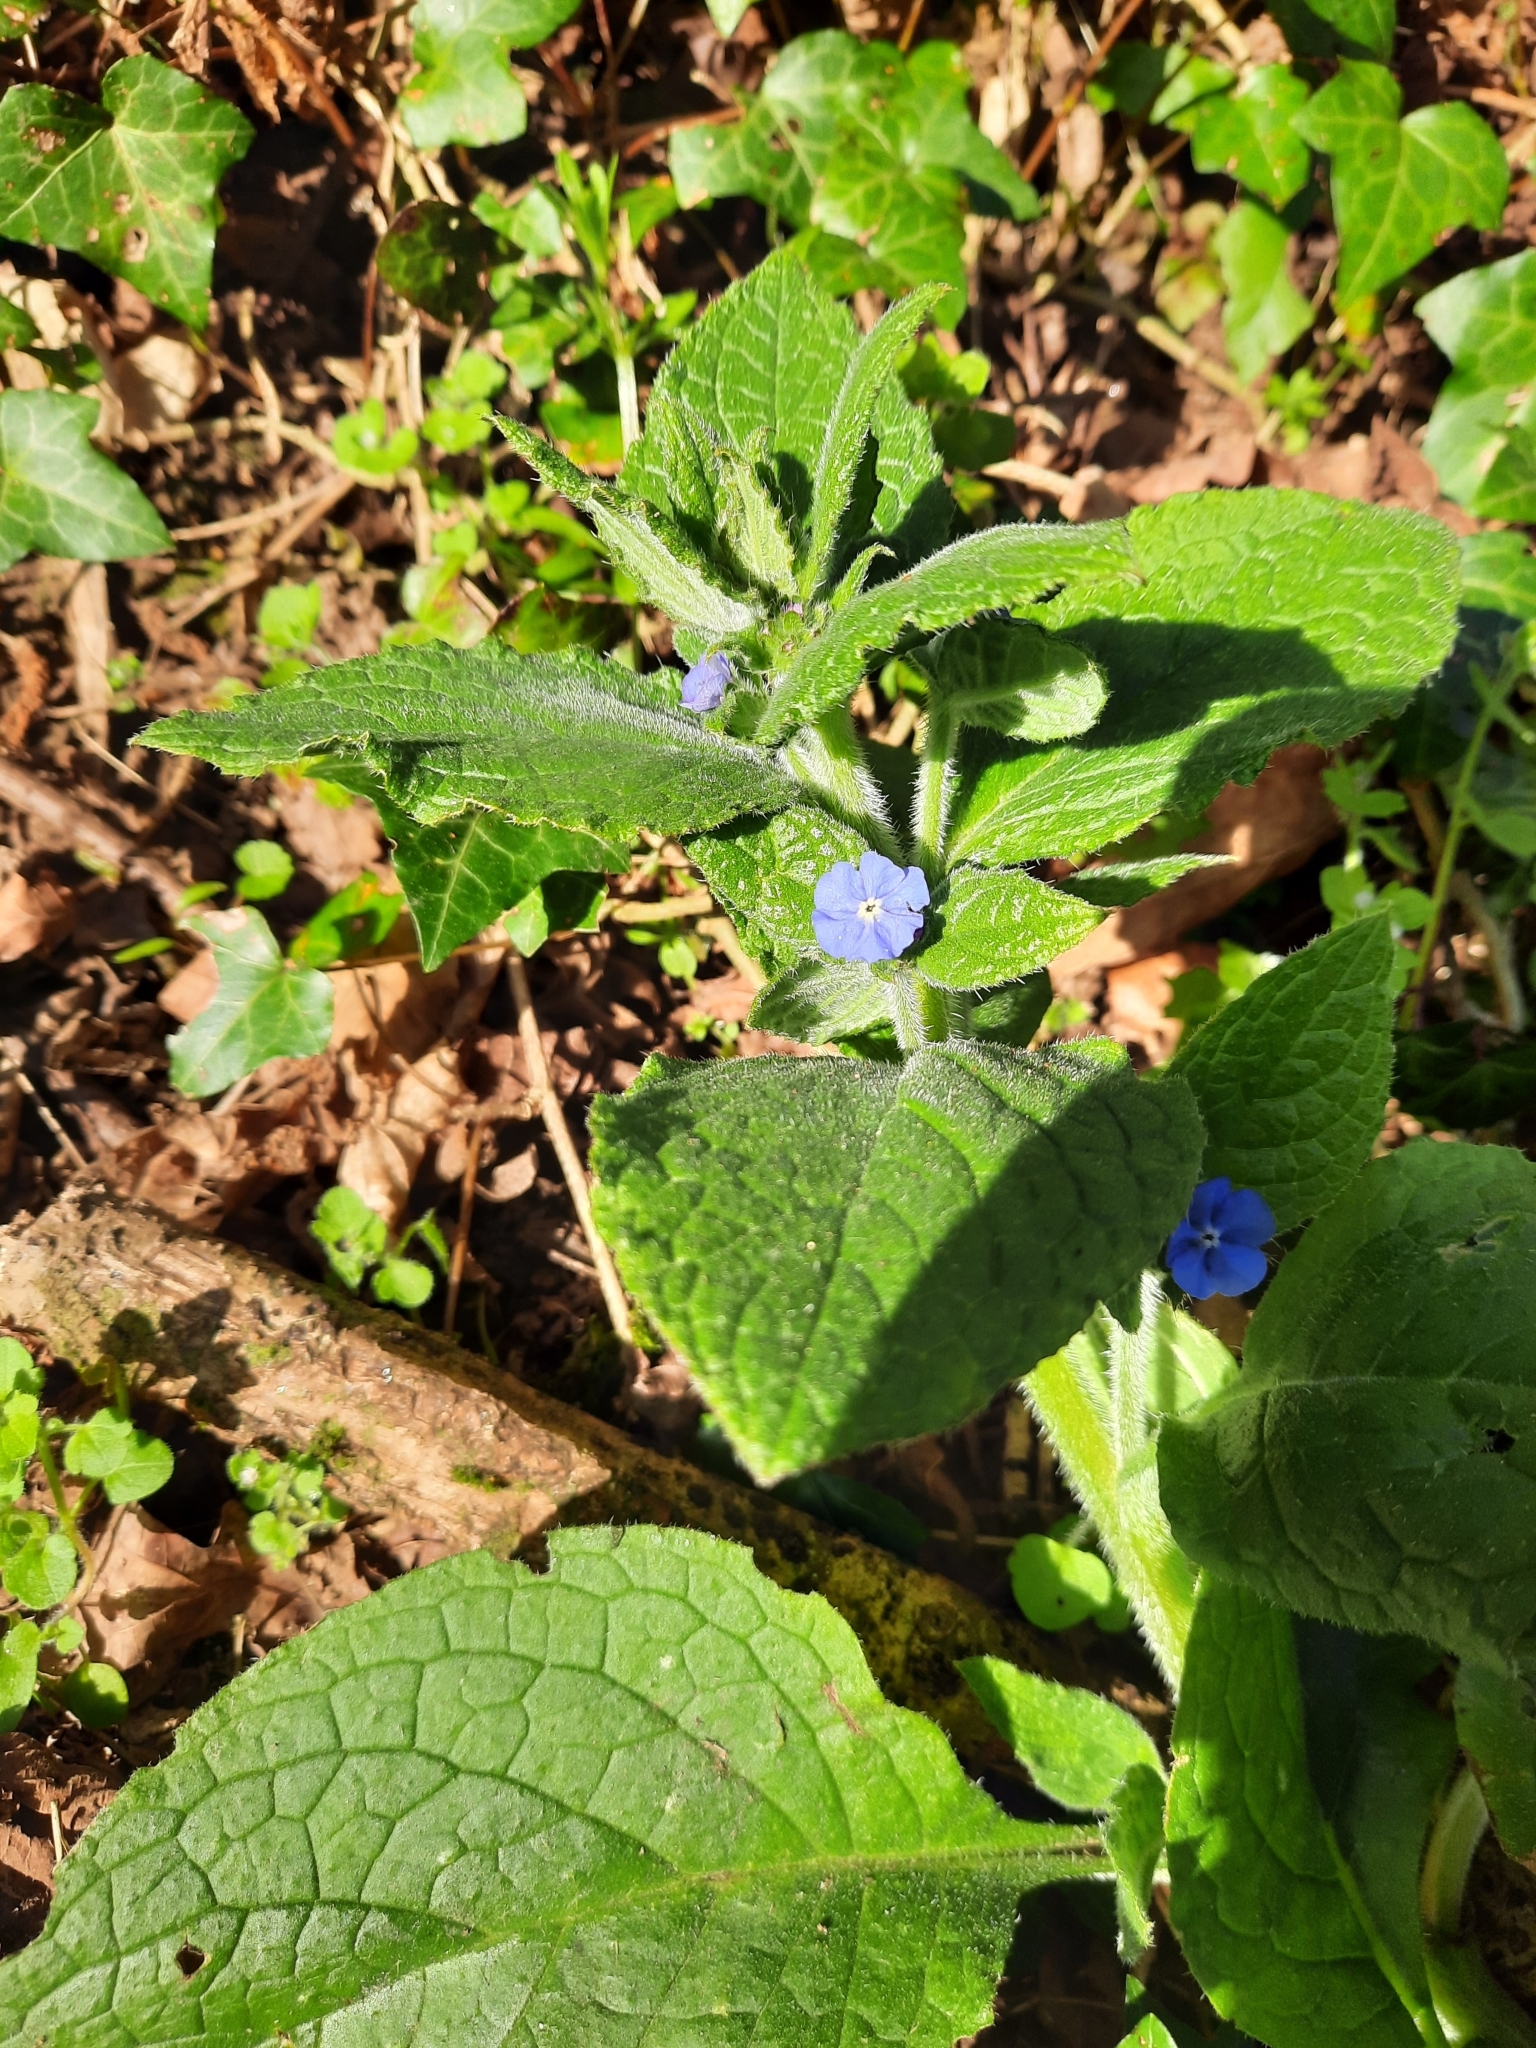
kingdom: Plantae
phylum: Tracheophyta
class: Magnoliopsida
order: Boraginales
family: Boraginaceae
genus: Pentaglottis
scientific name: Pentaglottis sempervirens
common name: Green alkanet
